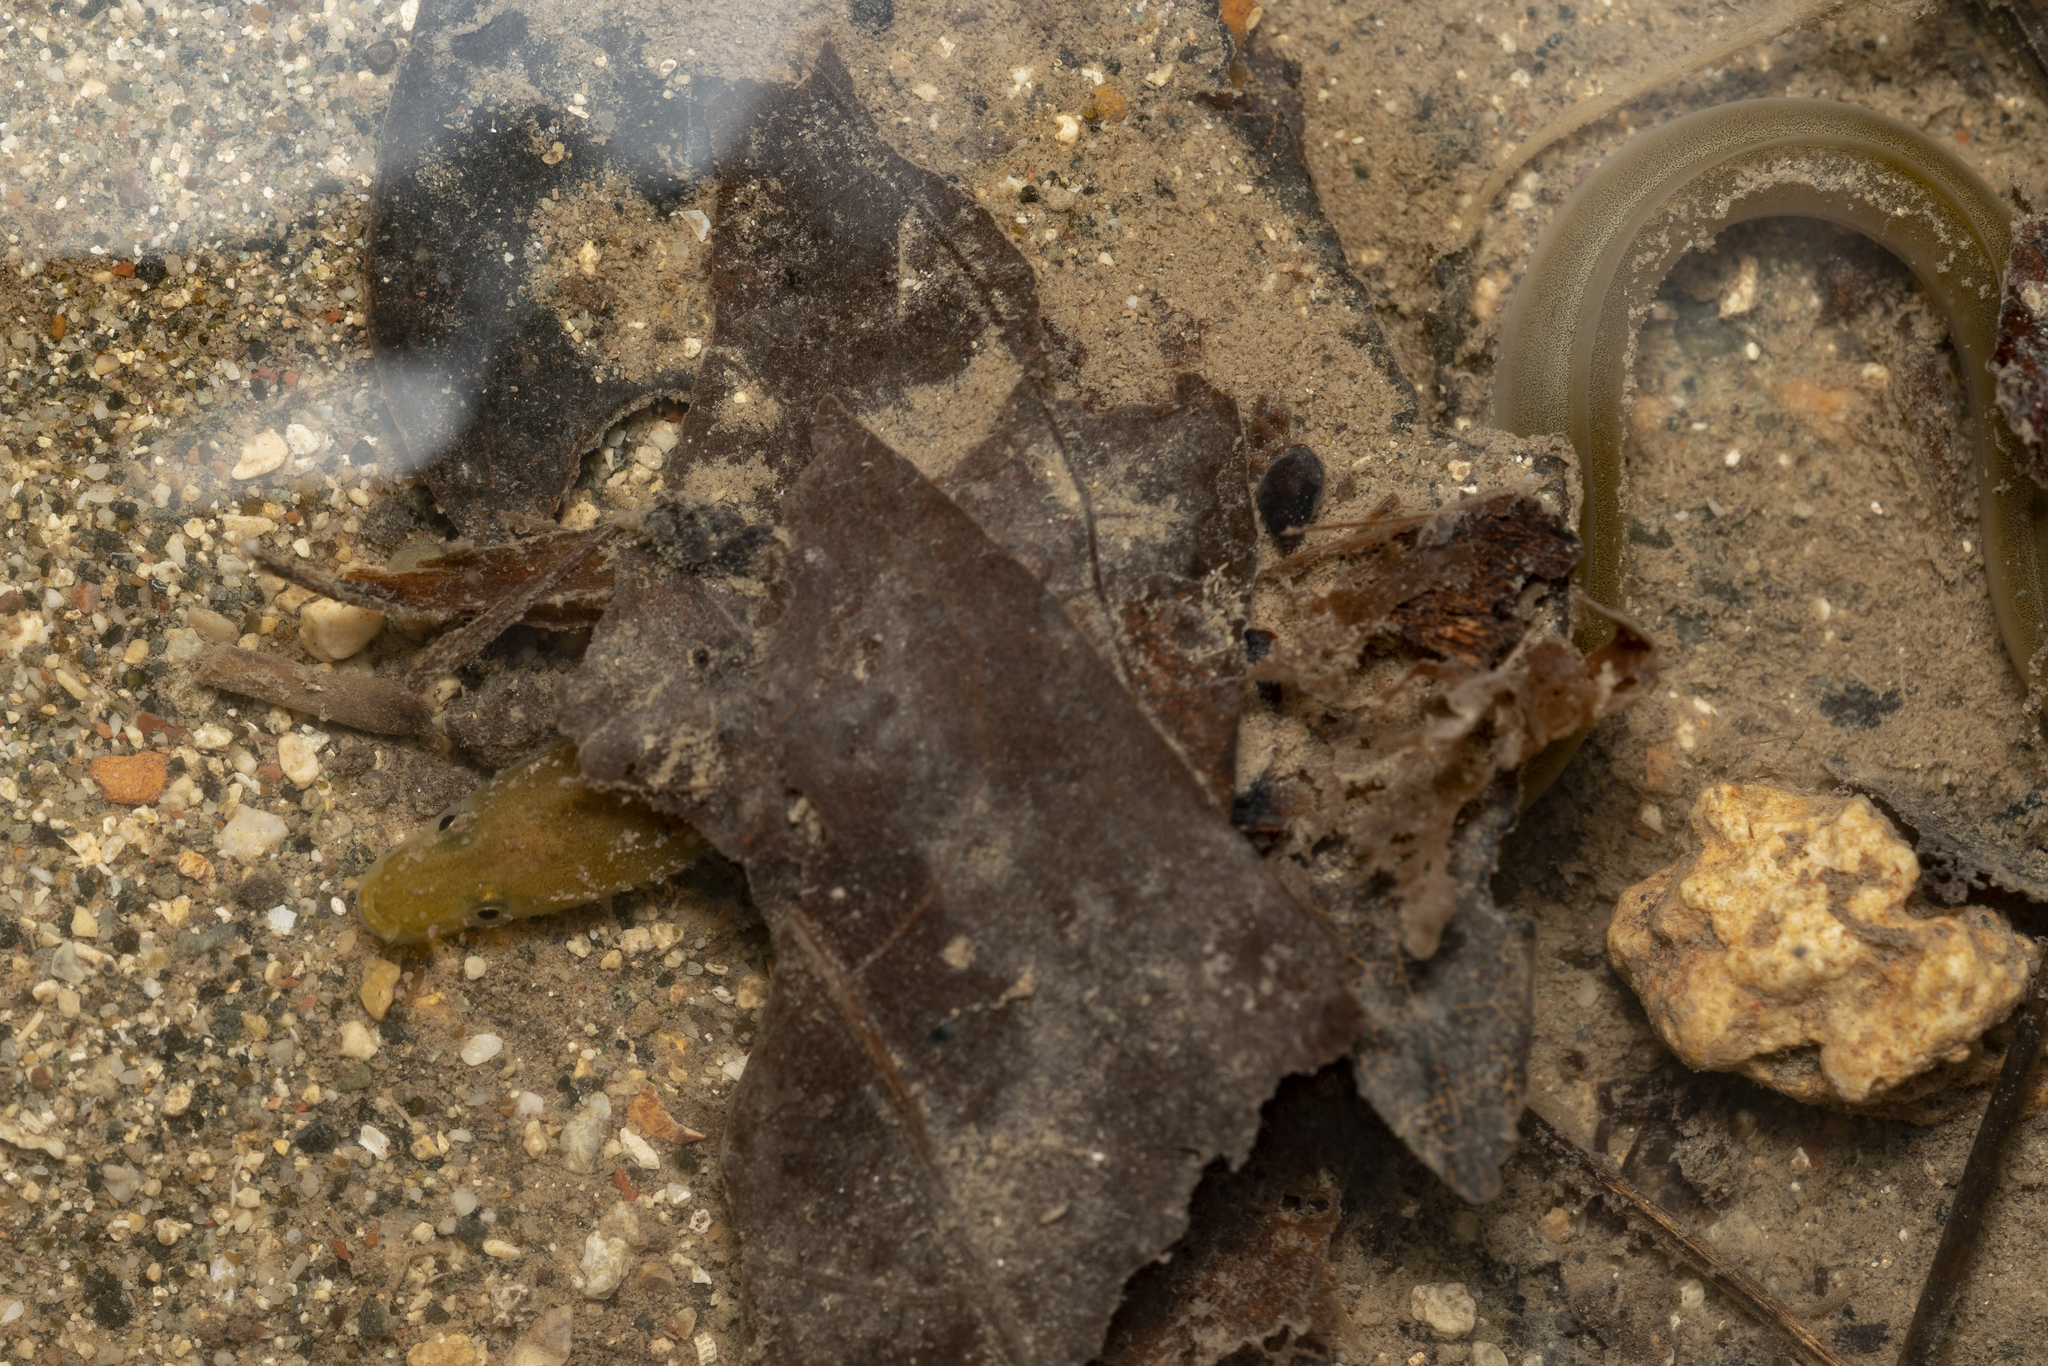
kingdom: Animalia
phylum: Chordata
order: Anguilliformes
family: Anguillidae
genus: Anguilla
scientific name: Anguilla anguilla
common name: European eel
